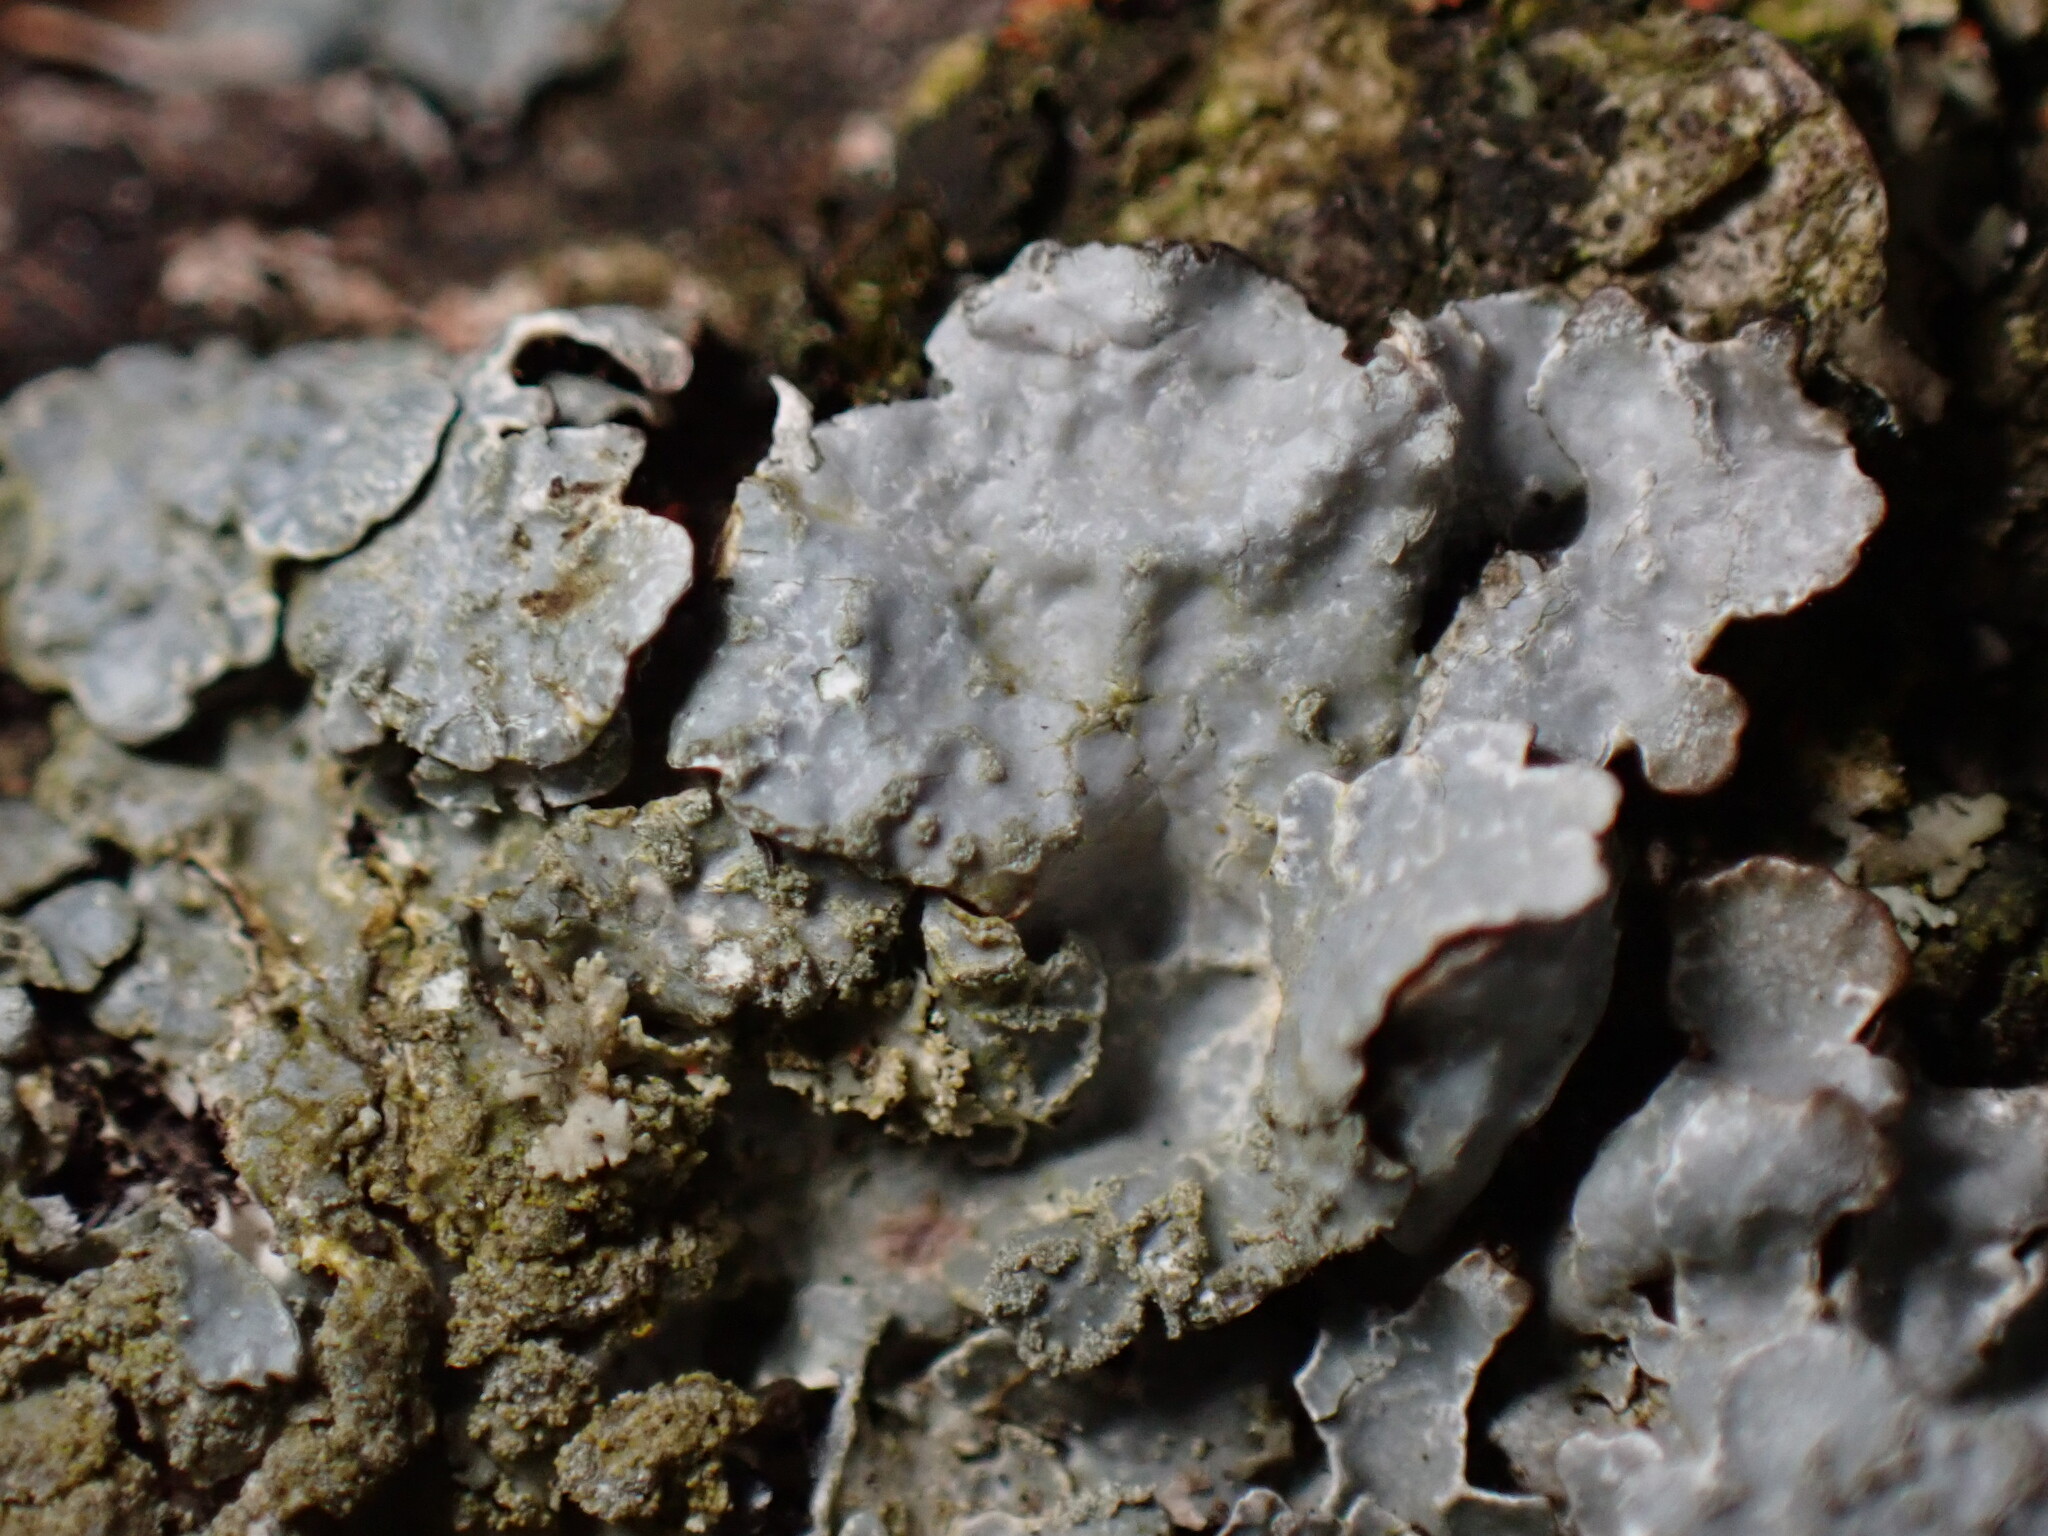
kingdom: Fungi
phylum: Ascomycota
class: Lecanoromycetes
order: Lecanorales
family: Parmeliaceae
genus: Parmelia
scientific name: Parmelia sulcata
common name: Netted shield lichen
